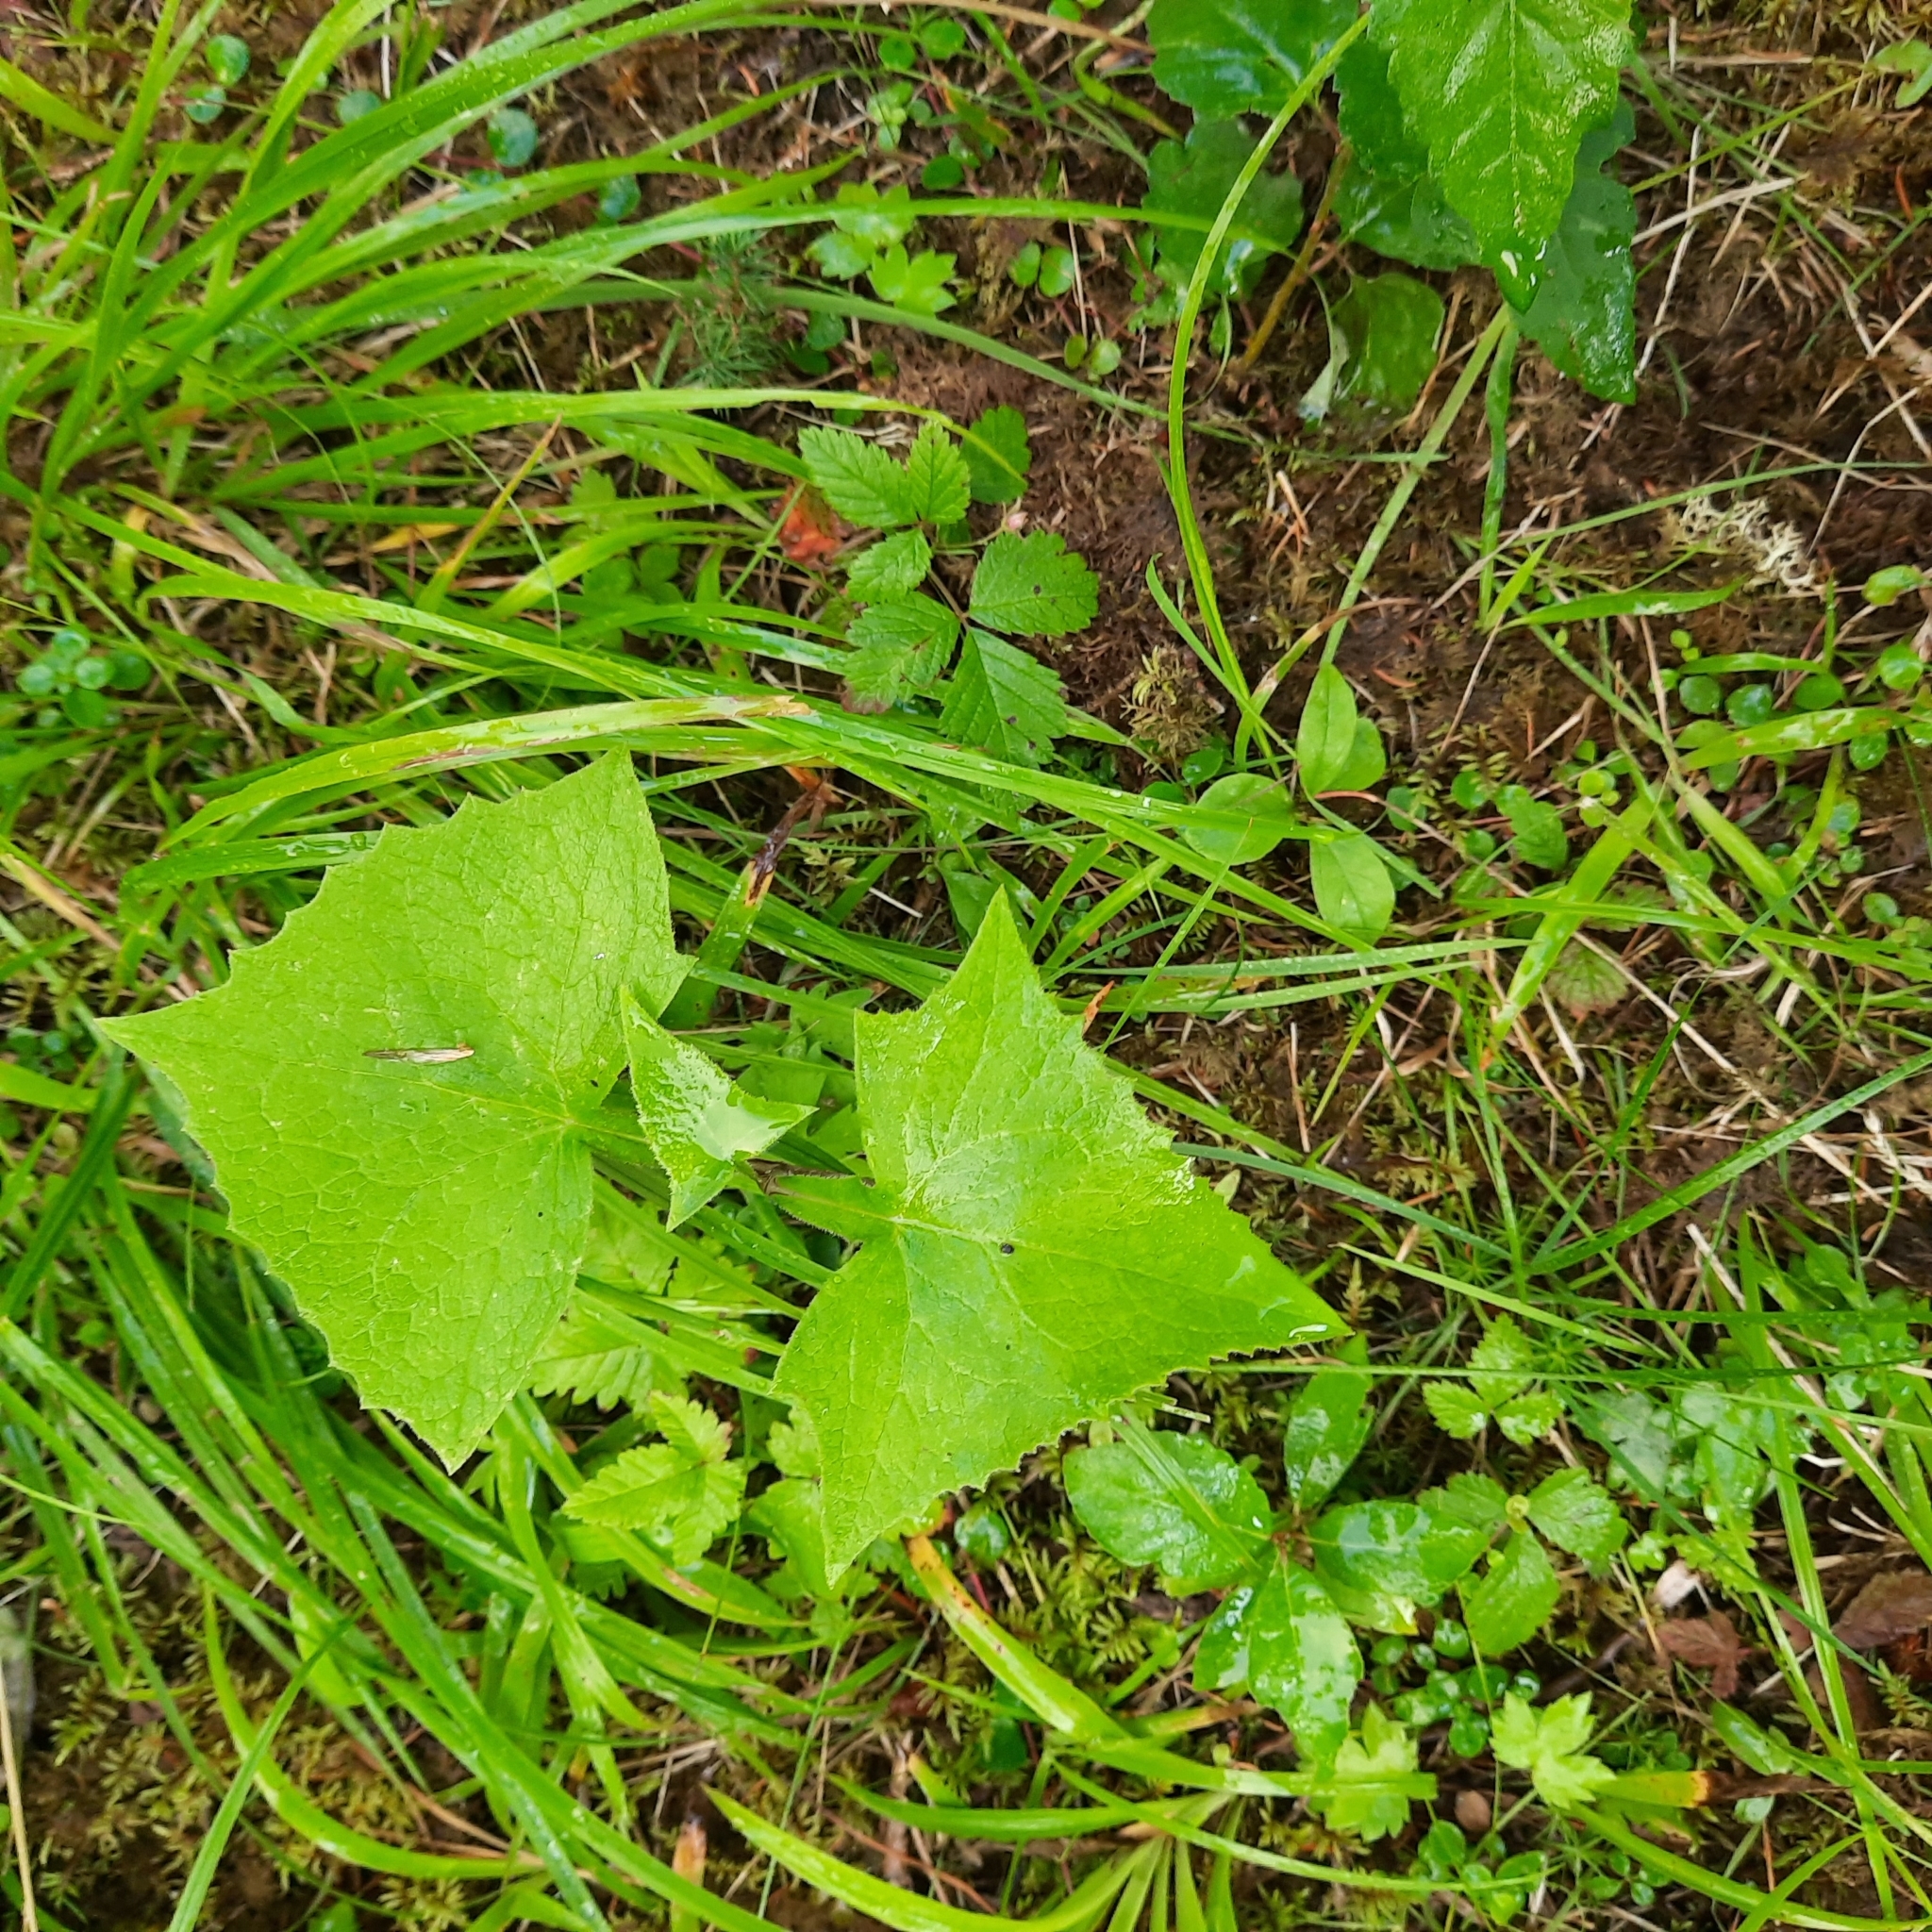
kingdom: Plantae
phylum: Tracheophyta
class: Magnoliopsida
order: Asterales
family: Asteraceae
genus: Parasenecio
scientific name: Parasenecio hastatus
